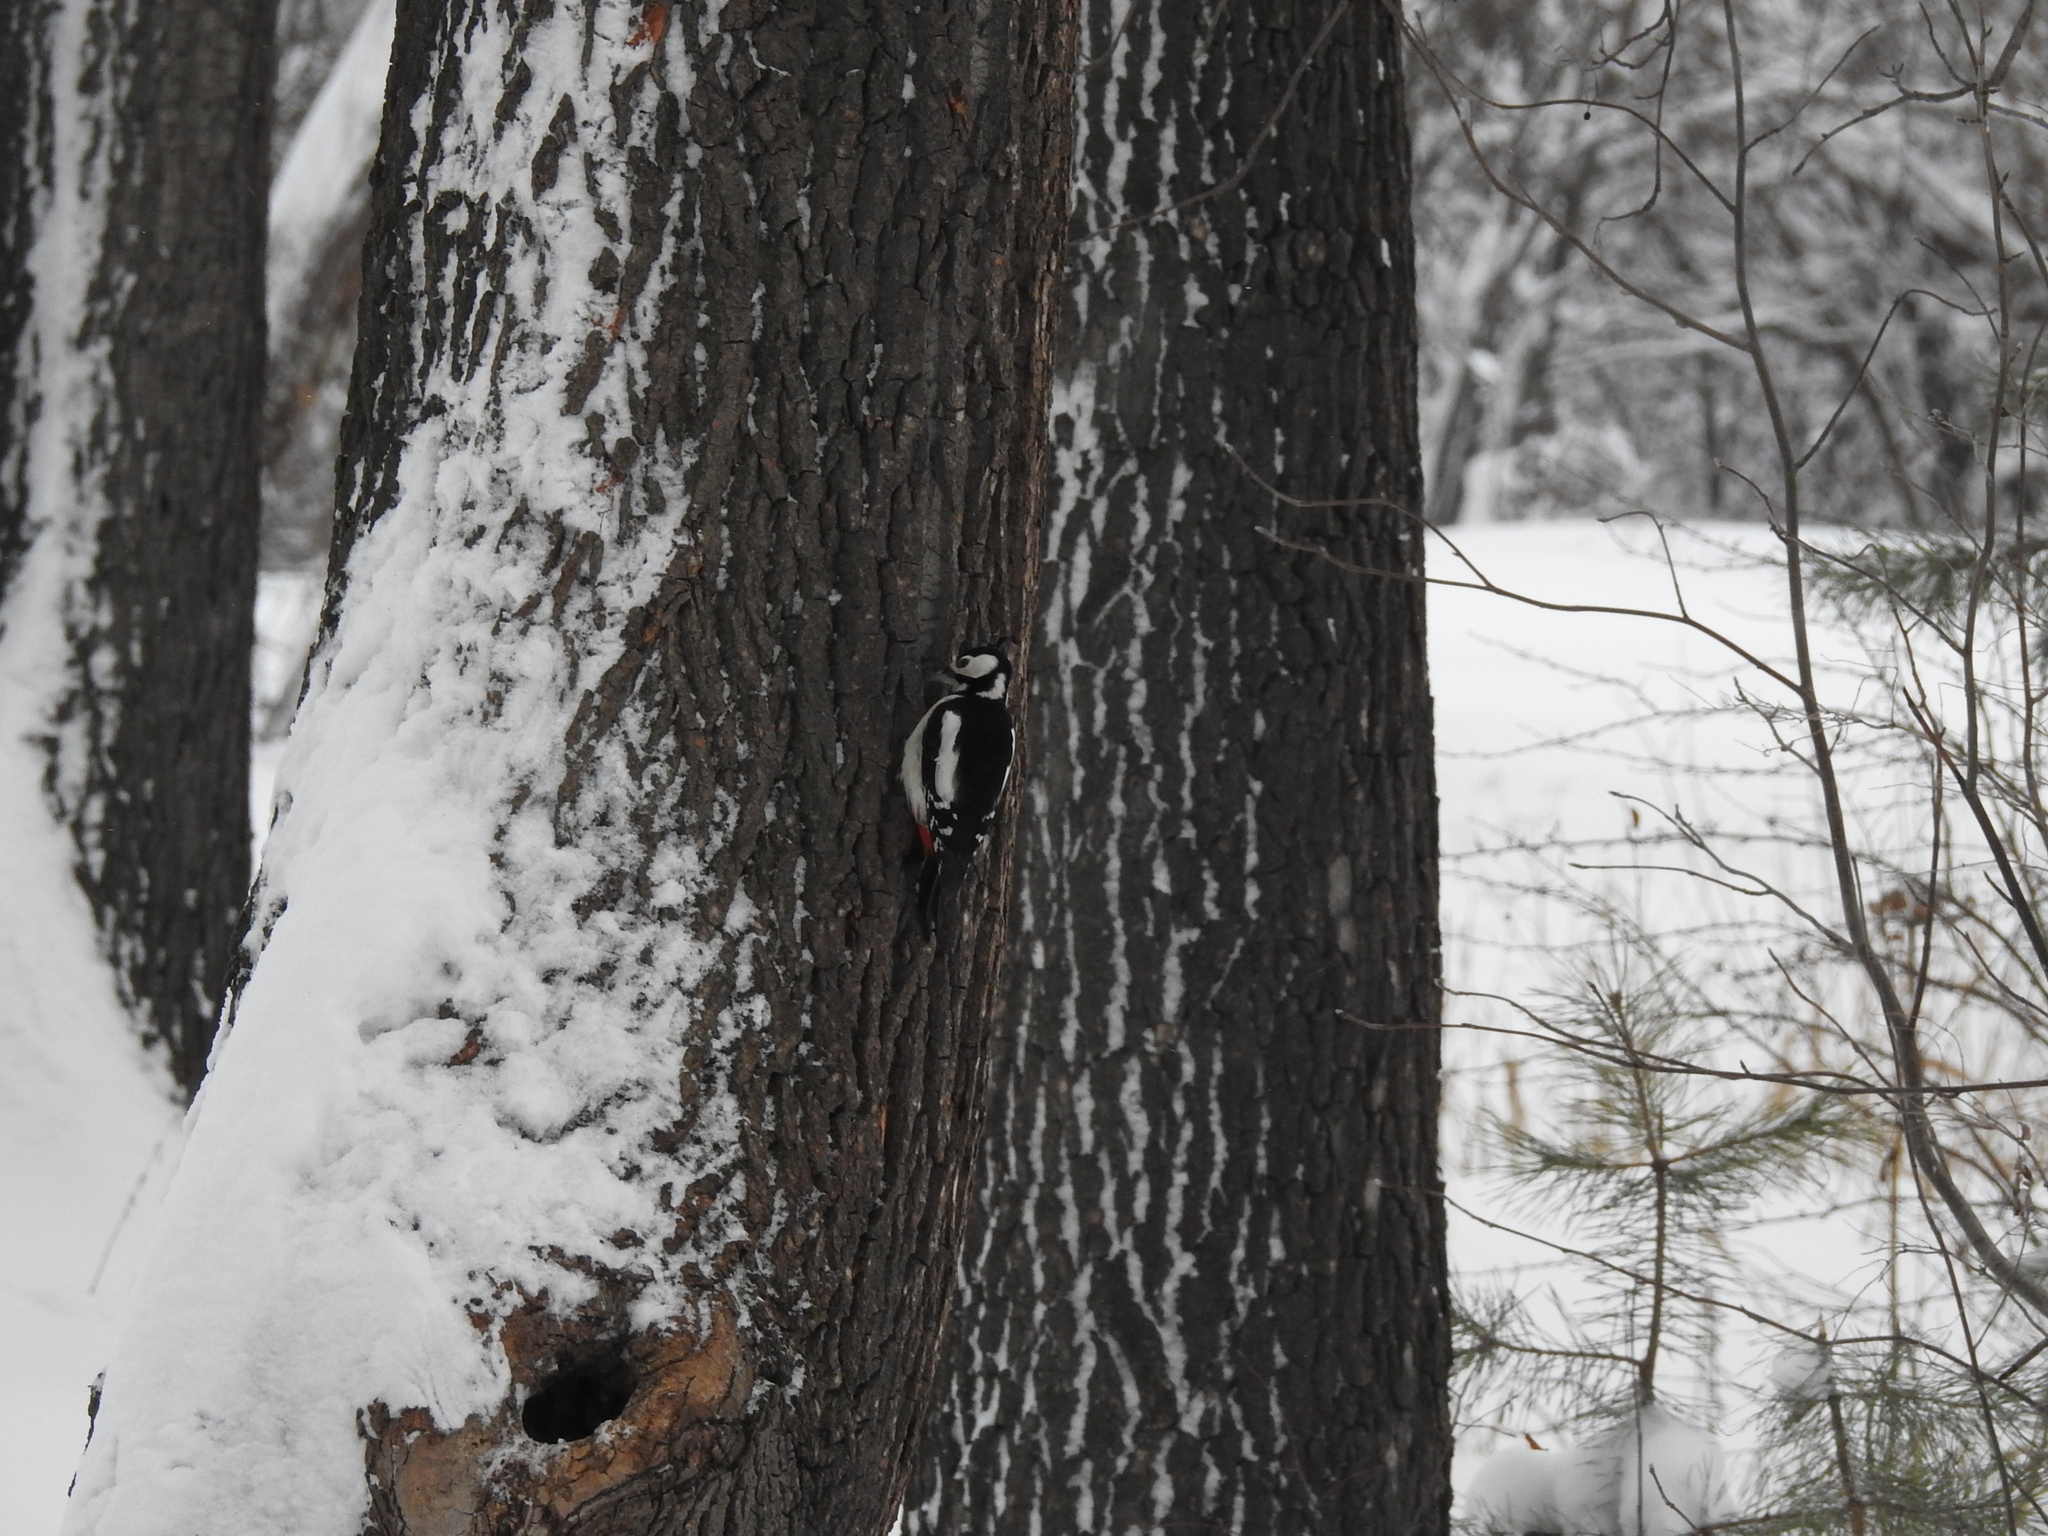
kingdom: Animalia
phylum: Chordata
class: Aves
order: Piciformes
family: Picidae
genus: Dendrocopos
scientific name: Dendrocopos major
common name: Great spotted woodpecker
